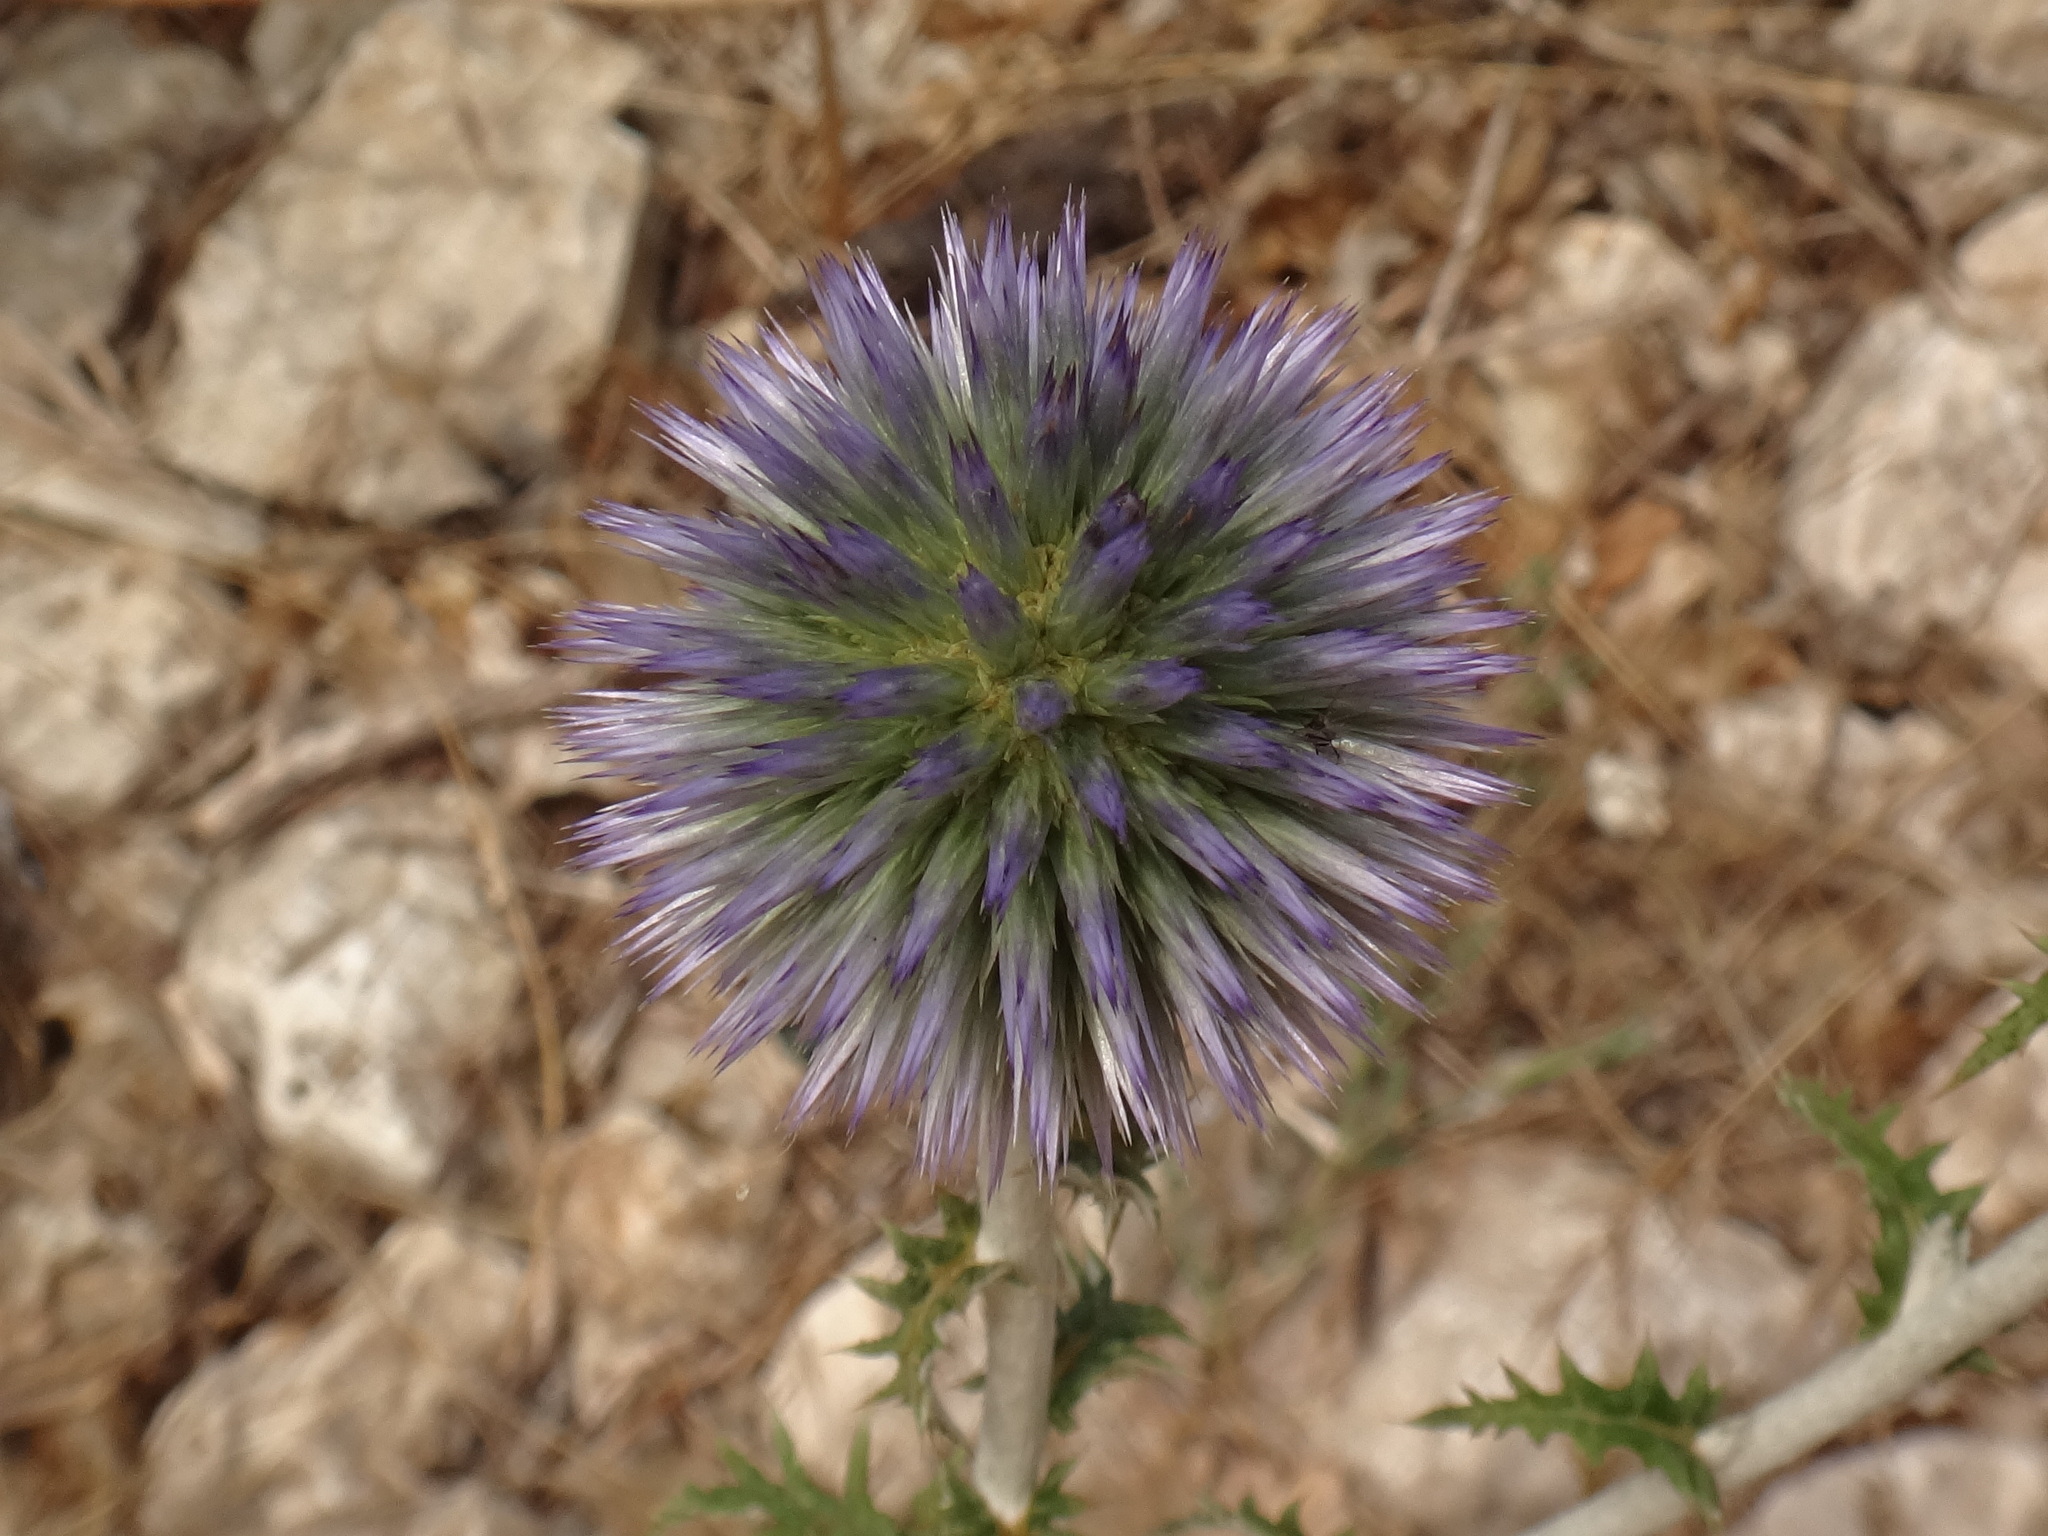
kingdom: Plantae
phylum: Tracheophyta
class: Magnoliopsida
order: Asterales
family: Asteraceae
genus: Echinops
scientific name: Echinops ritro
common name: Globe thistle
